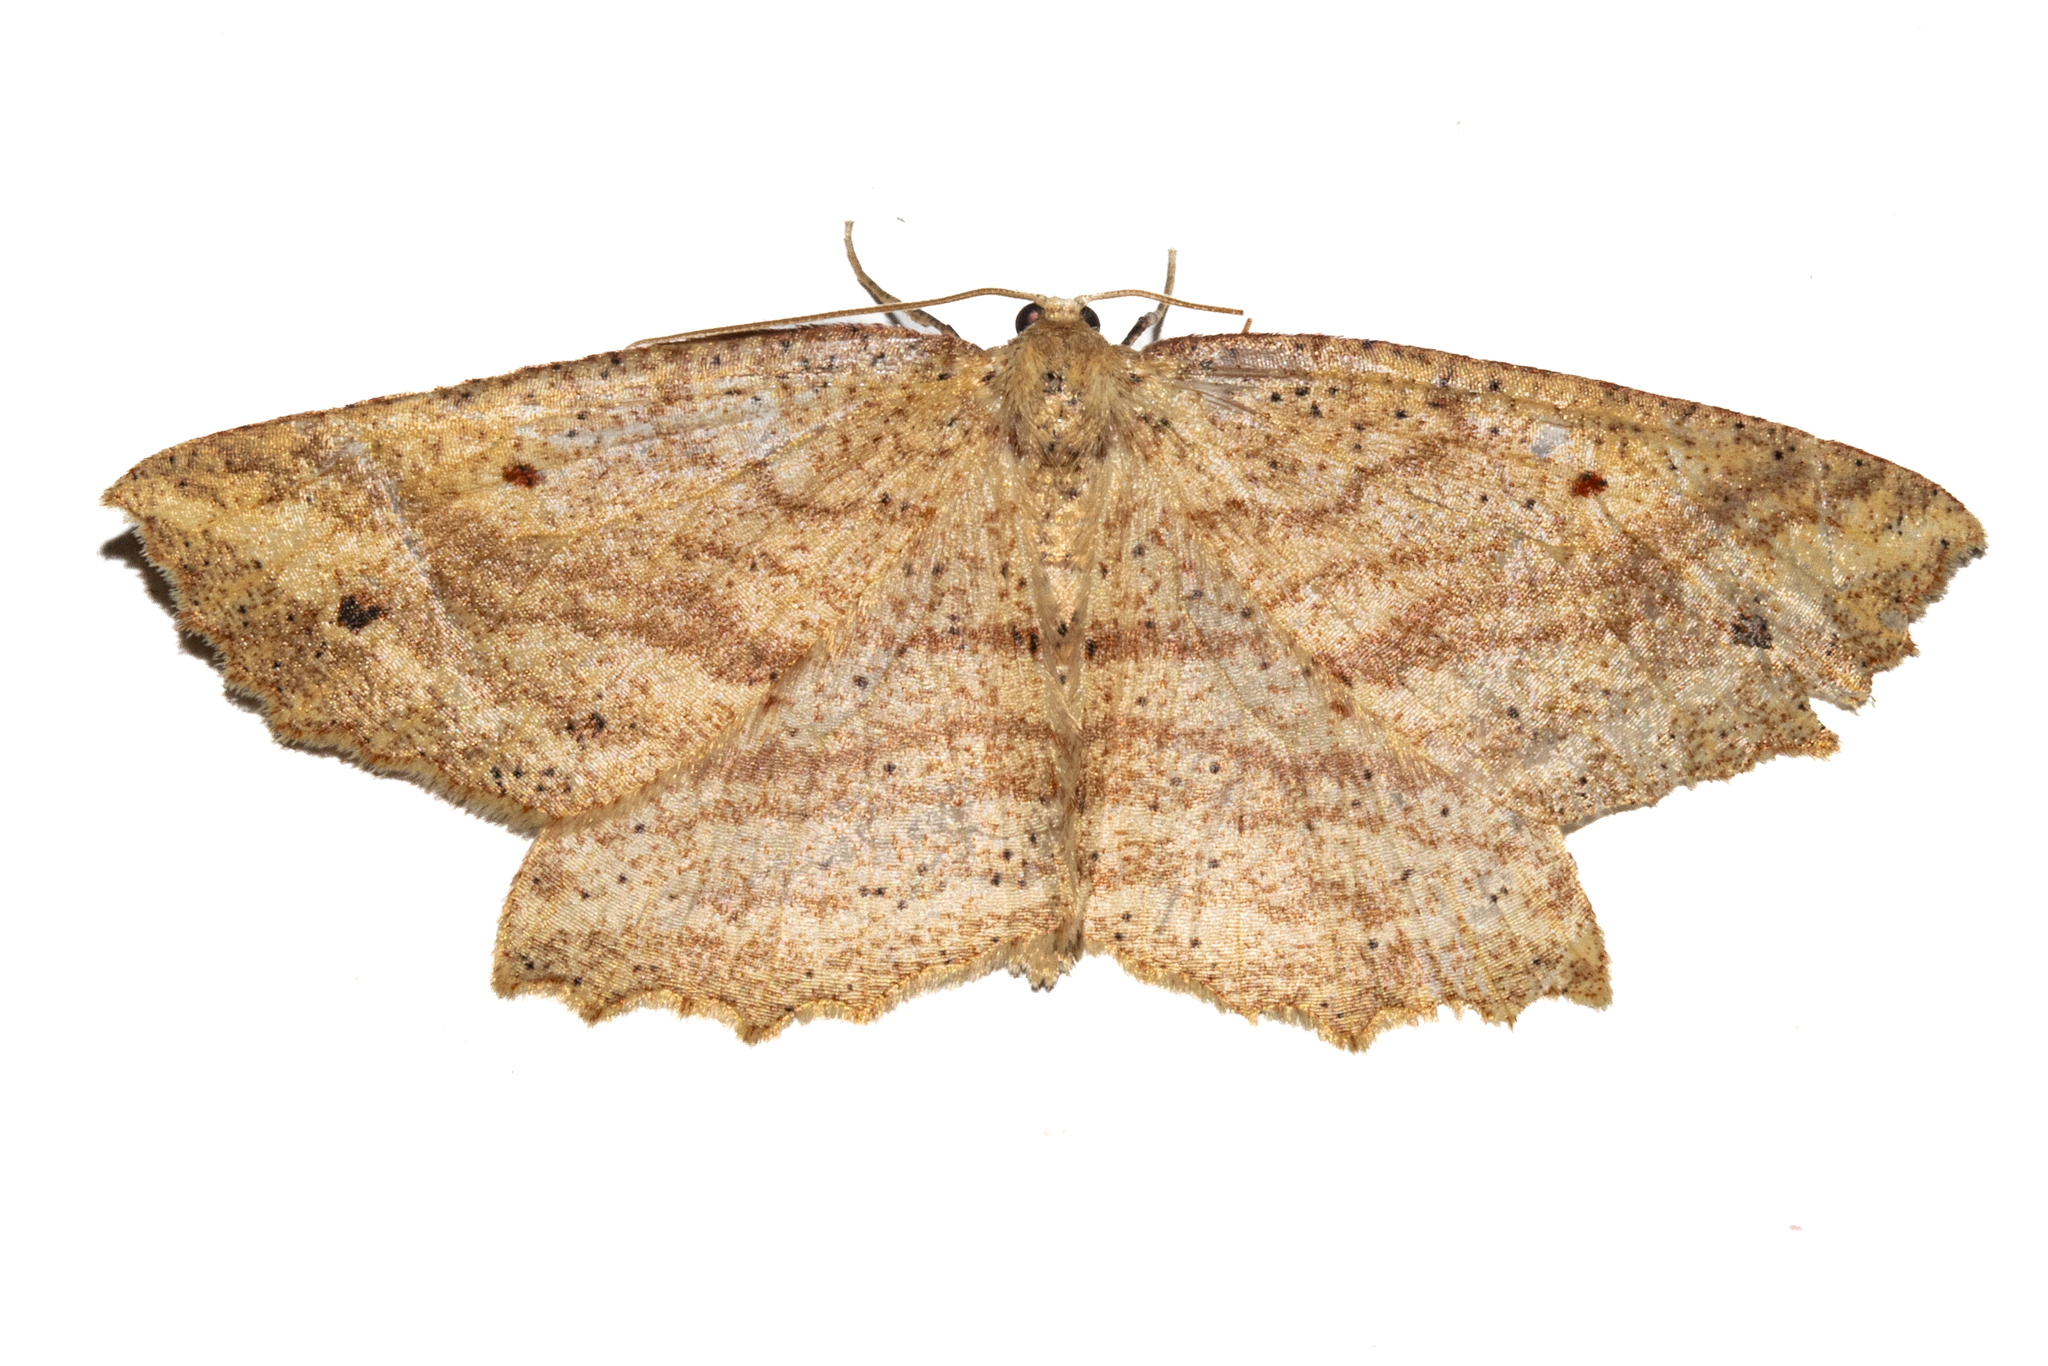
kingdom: Animalia
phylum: Arthropoda
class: Insecta
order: Lepidoptera
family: Geometridae
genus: Xyridacma
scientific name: Xyridacma veronicae
